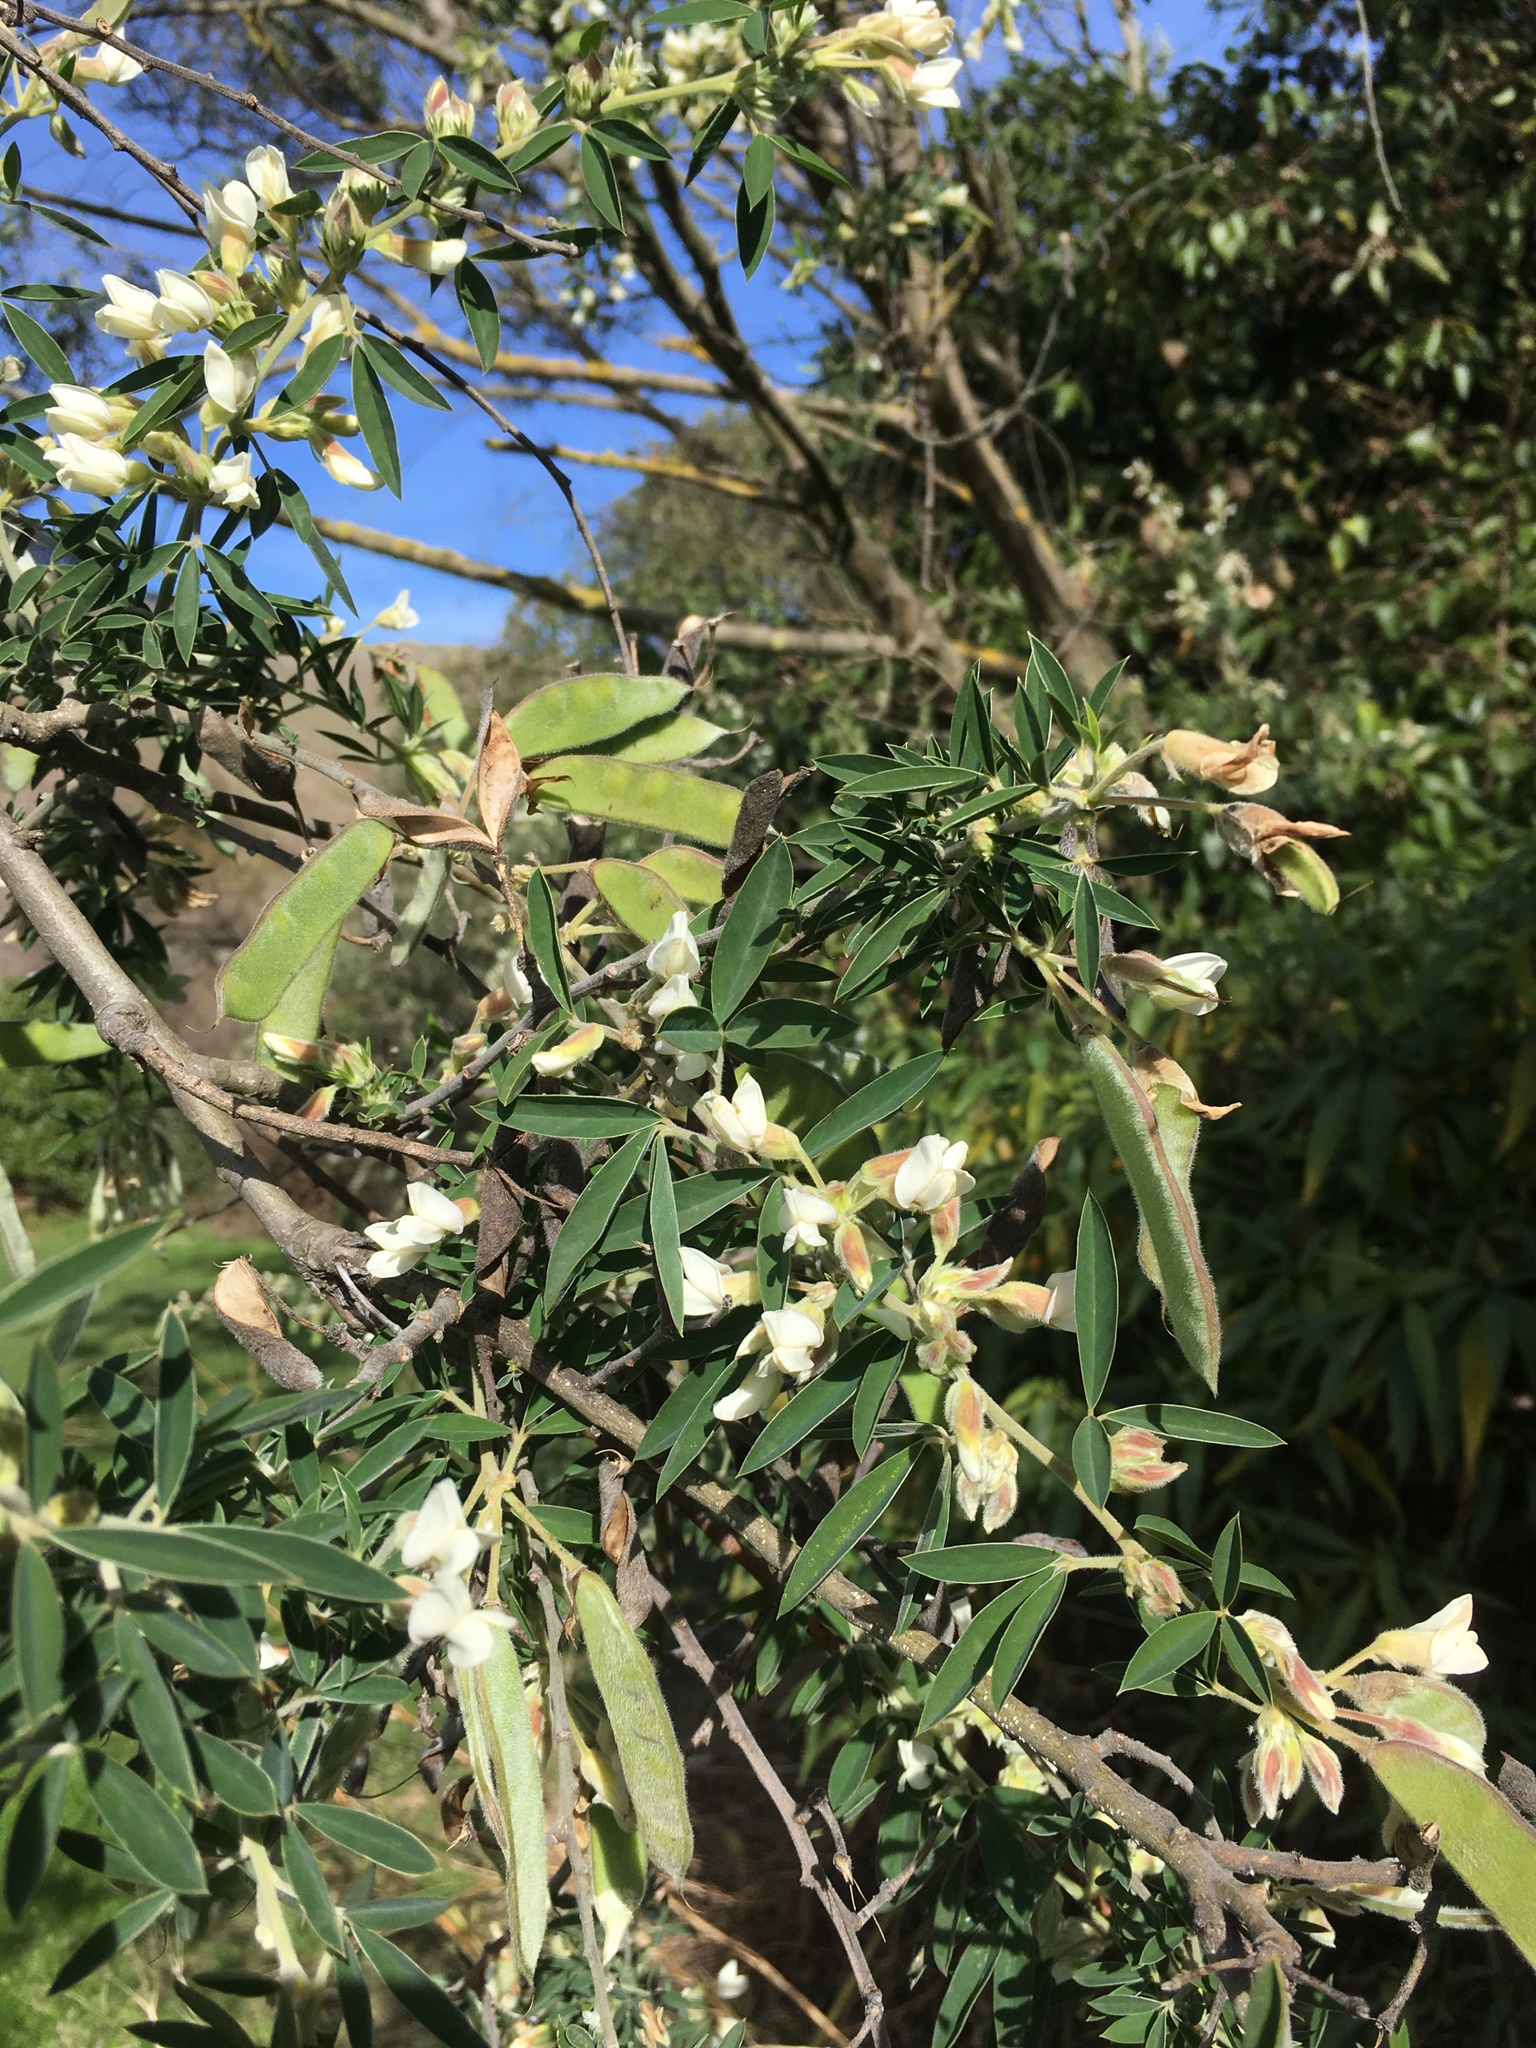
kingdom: Plantae
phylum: Tracheophyta
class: Magnoliopsida
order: Fabales
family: Fabaceae
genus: Chamaecytisus
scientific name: Chamaecytisus prolifer
